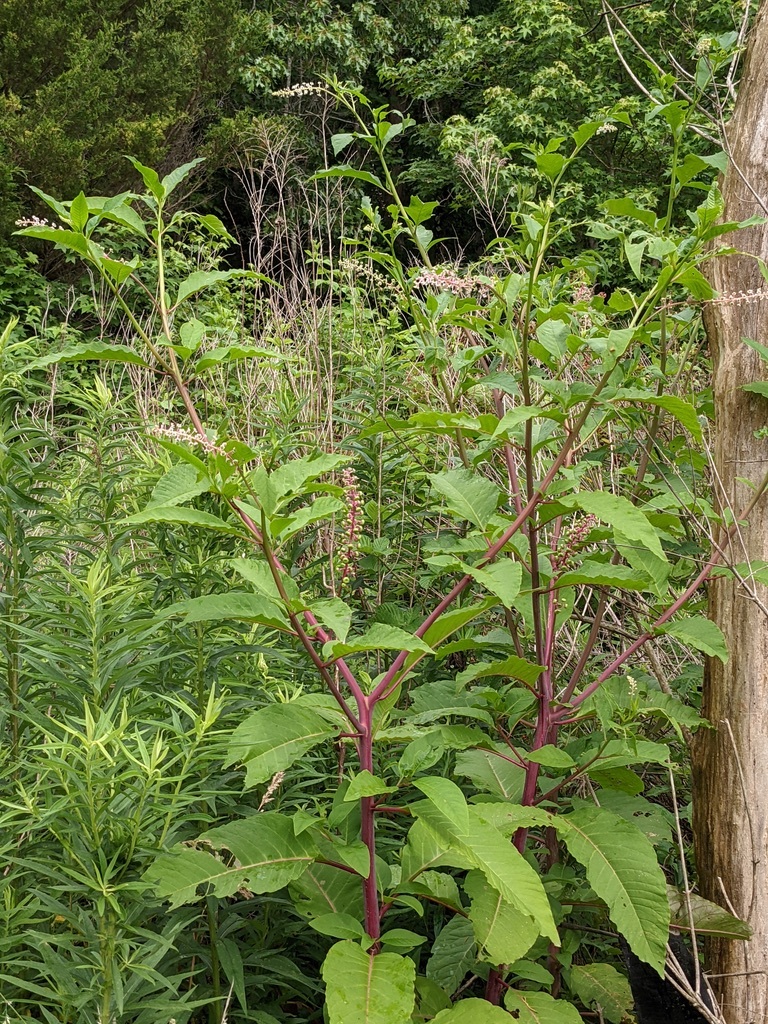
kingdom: Plantae
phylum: Tracheophyta
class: Magnoliopsida
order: Caryophyllales
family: Phytolaccaceae
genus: Phytolacca
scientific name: Phytolacca americana
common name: American pokeweed
